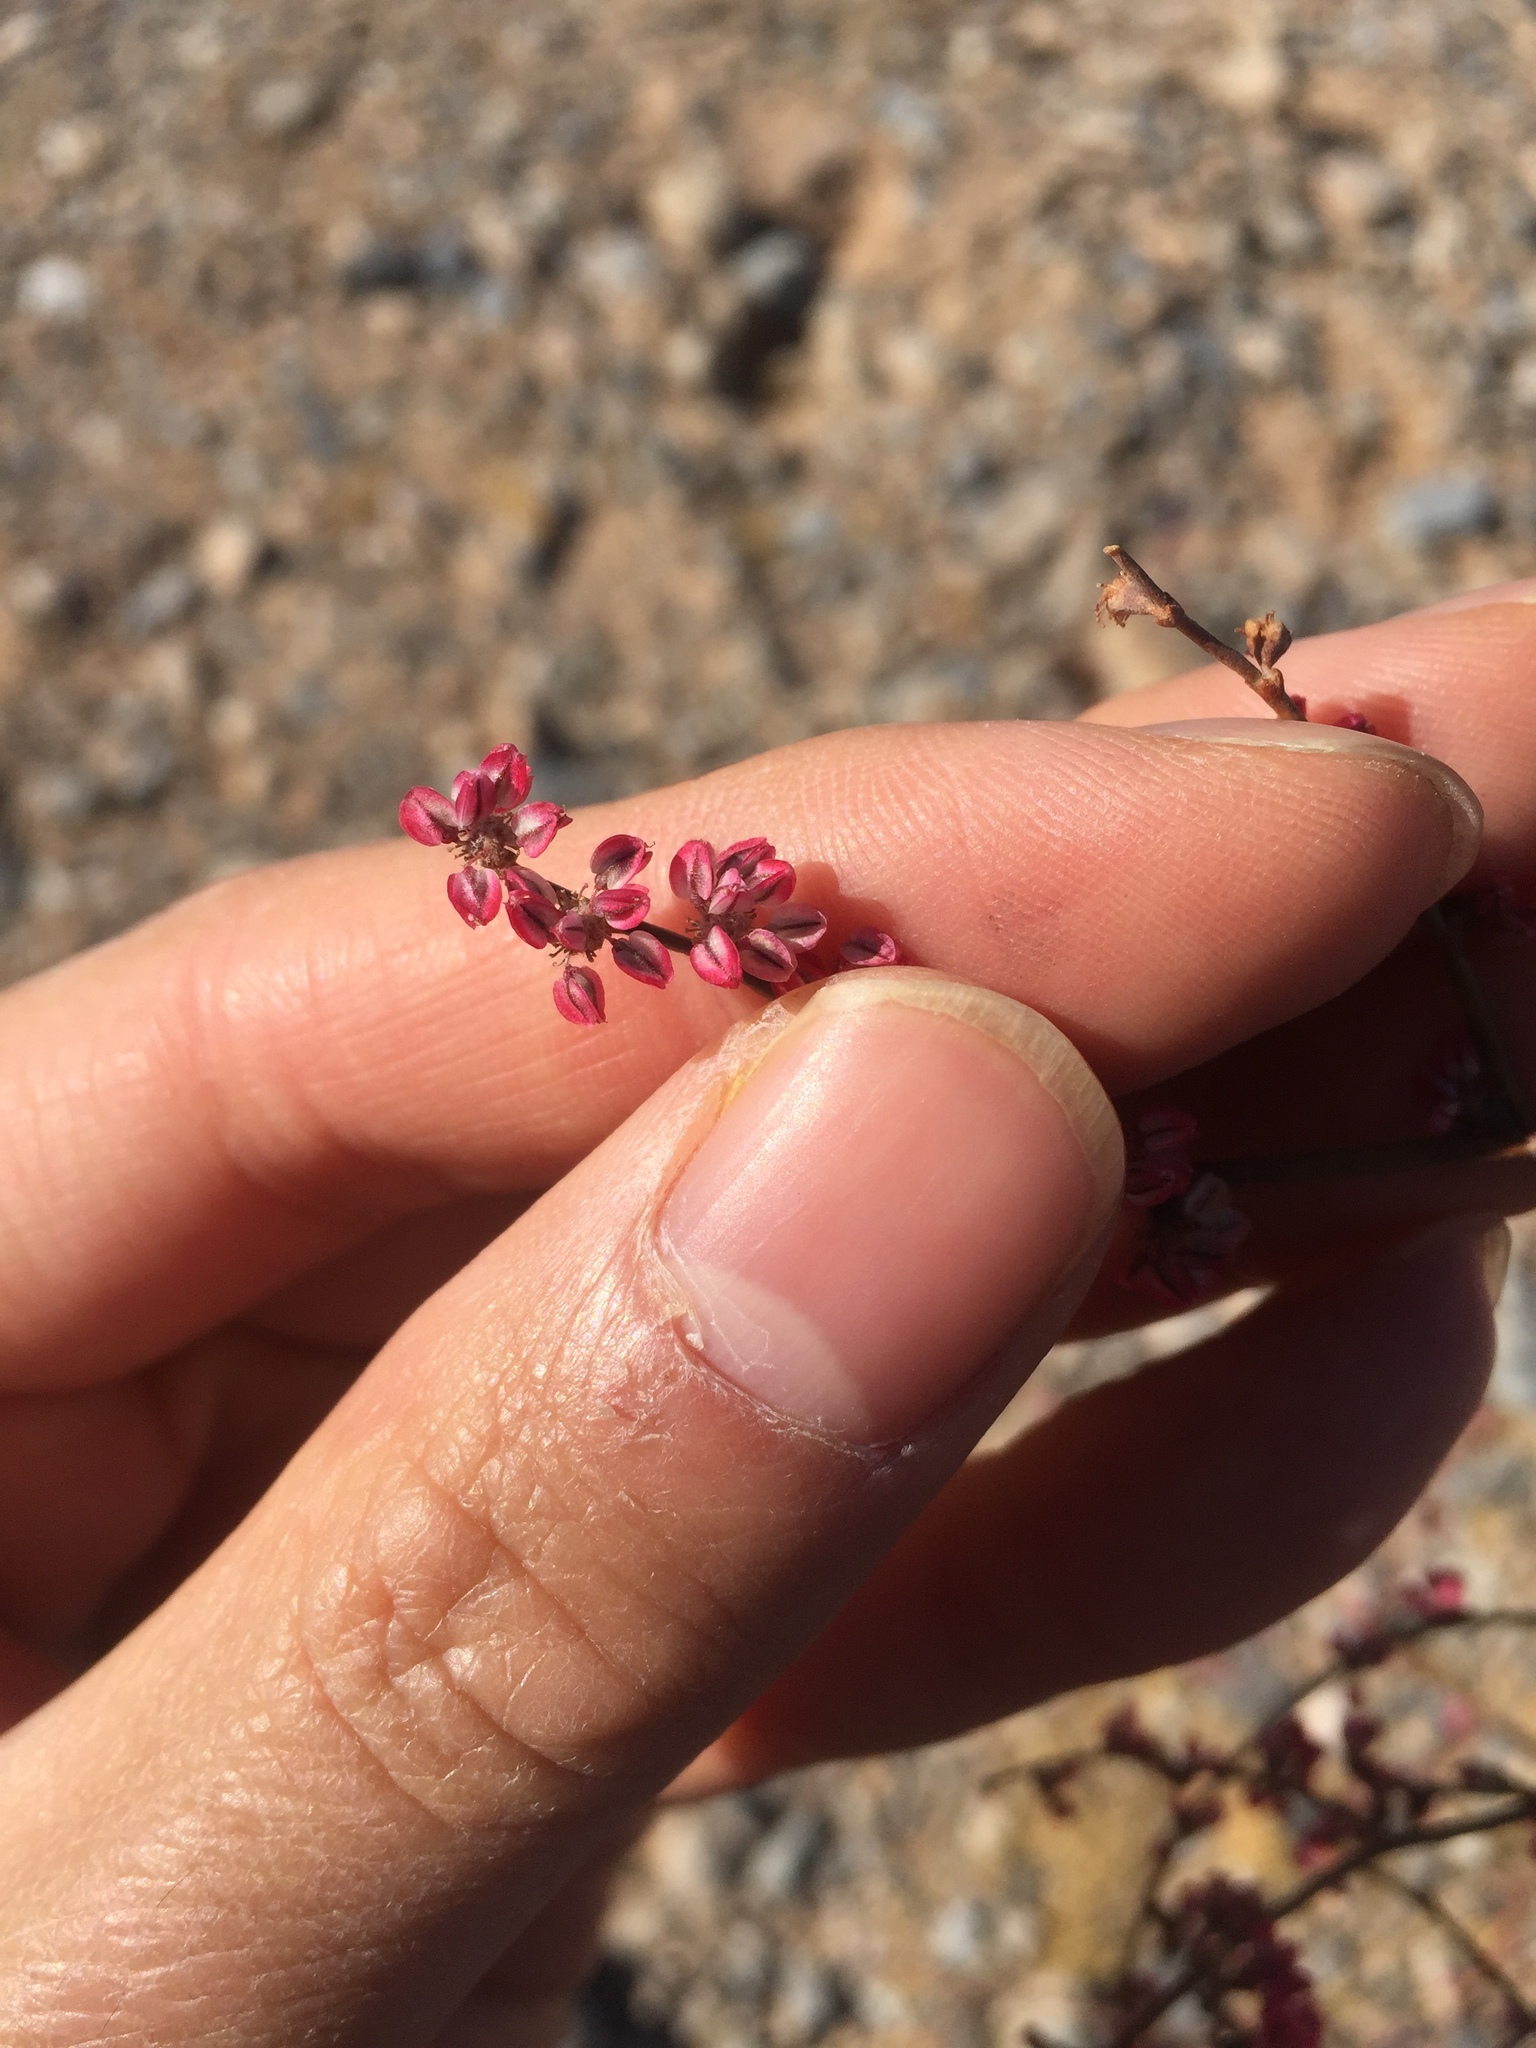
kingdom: Plantae
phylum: Tracheophyta
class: Magnoliopsida
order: Caryophyllales
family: Polygonaceae
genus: Eriogonum
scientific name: Eriogonum deflexum
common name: Skeleton-weed
